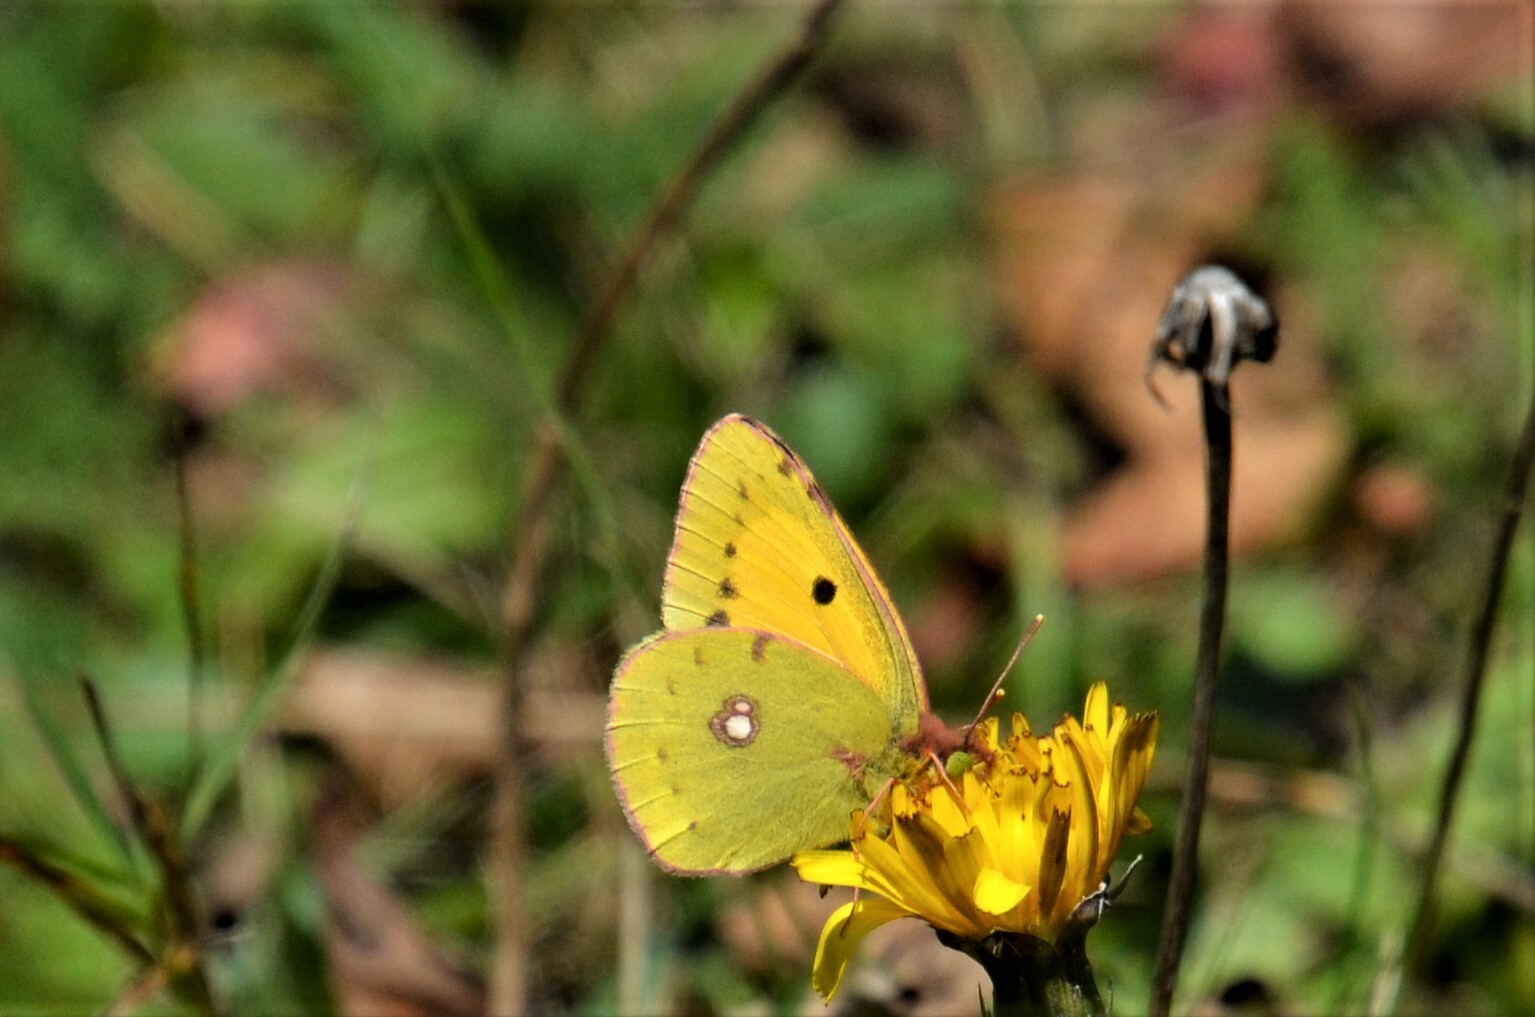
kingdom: Animalia
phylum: Arthropoda
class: Insecta
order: Lepidoptera
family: Pieridae
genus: Colias
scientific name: Colias croceus
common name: Clouded yellow
